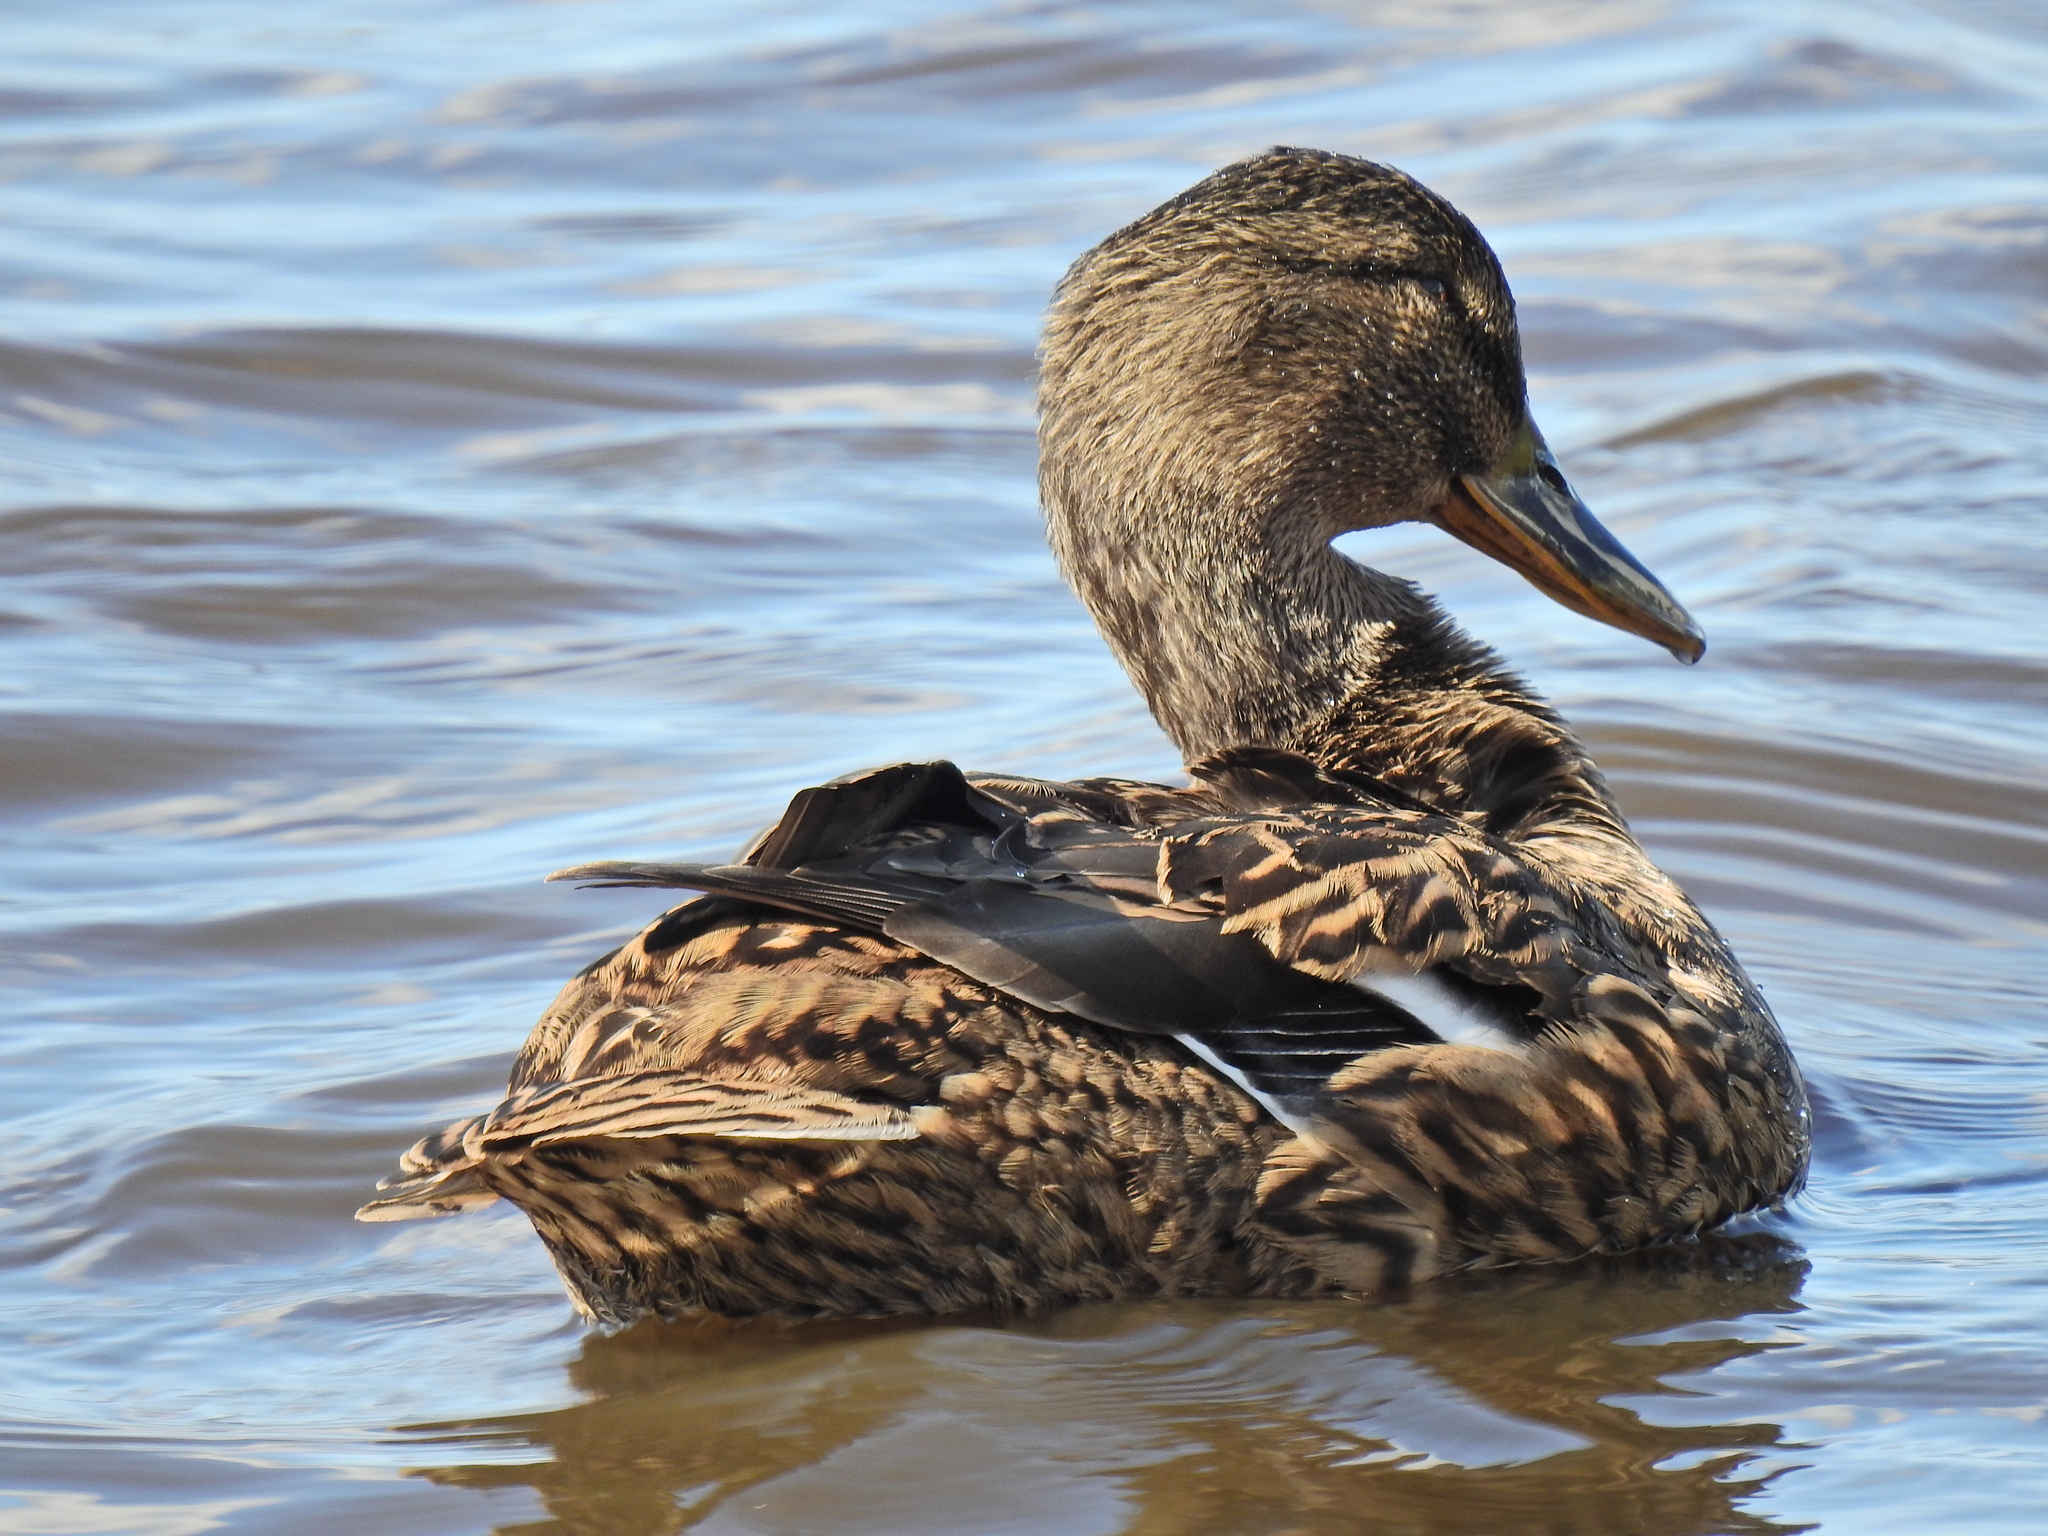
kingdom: Animalia
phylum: Chordata
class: Aves
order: Anseriformes
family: Anatidae
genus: Anas
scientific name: Anas platyrhynchos
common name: Mallard
